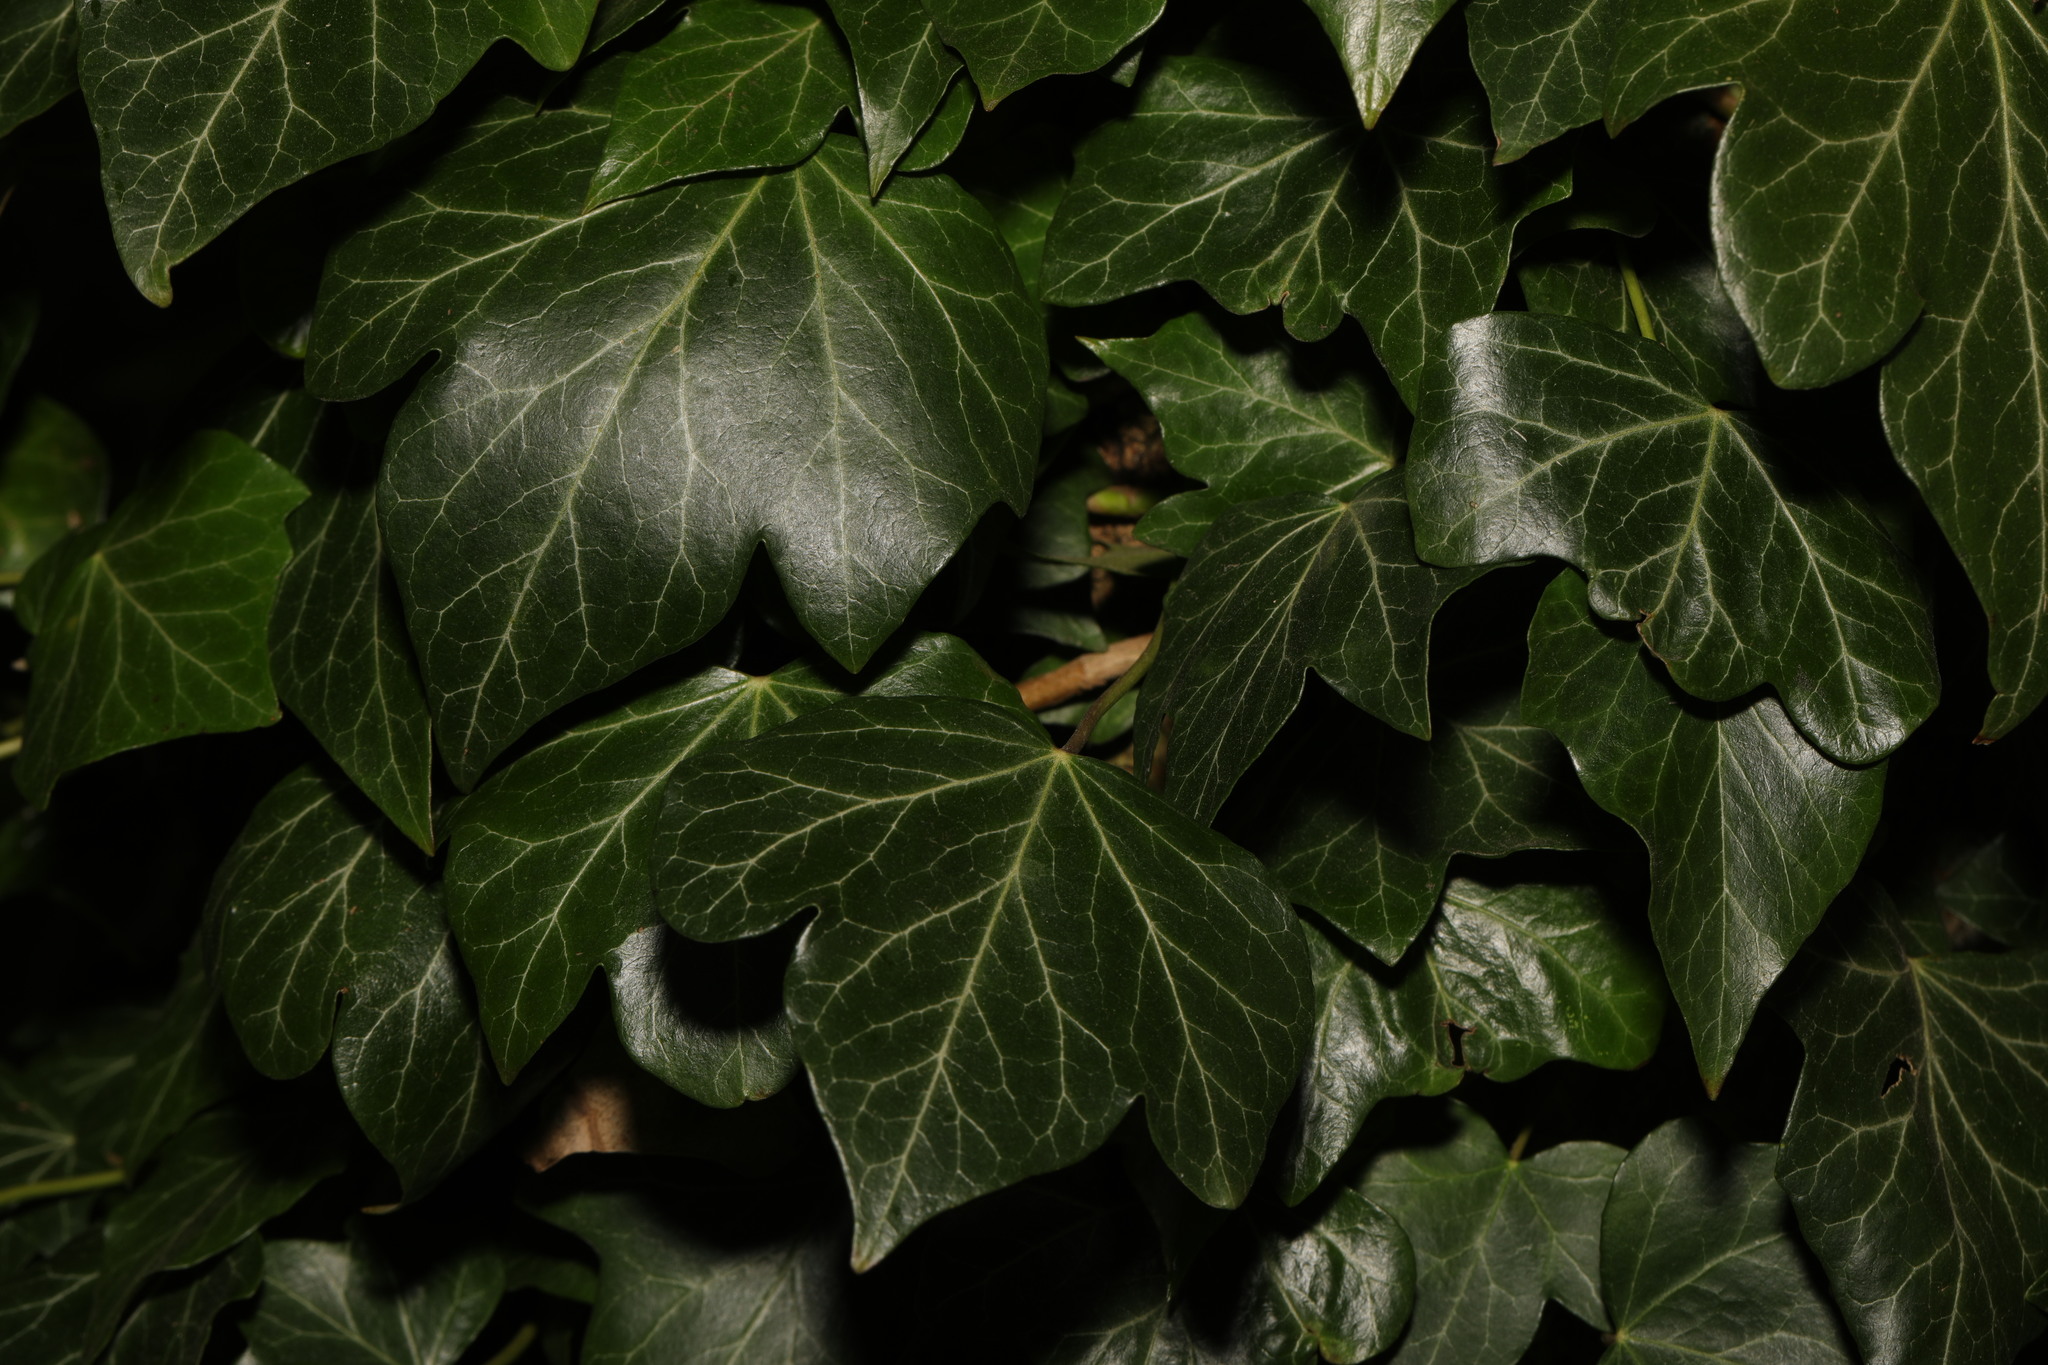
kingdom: Plantae
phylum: Tracheophyta
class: Magnoliopsida
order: Apiales
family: Araliaceae
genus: Hedera
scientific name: Hedera helix
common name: Ivy
